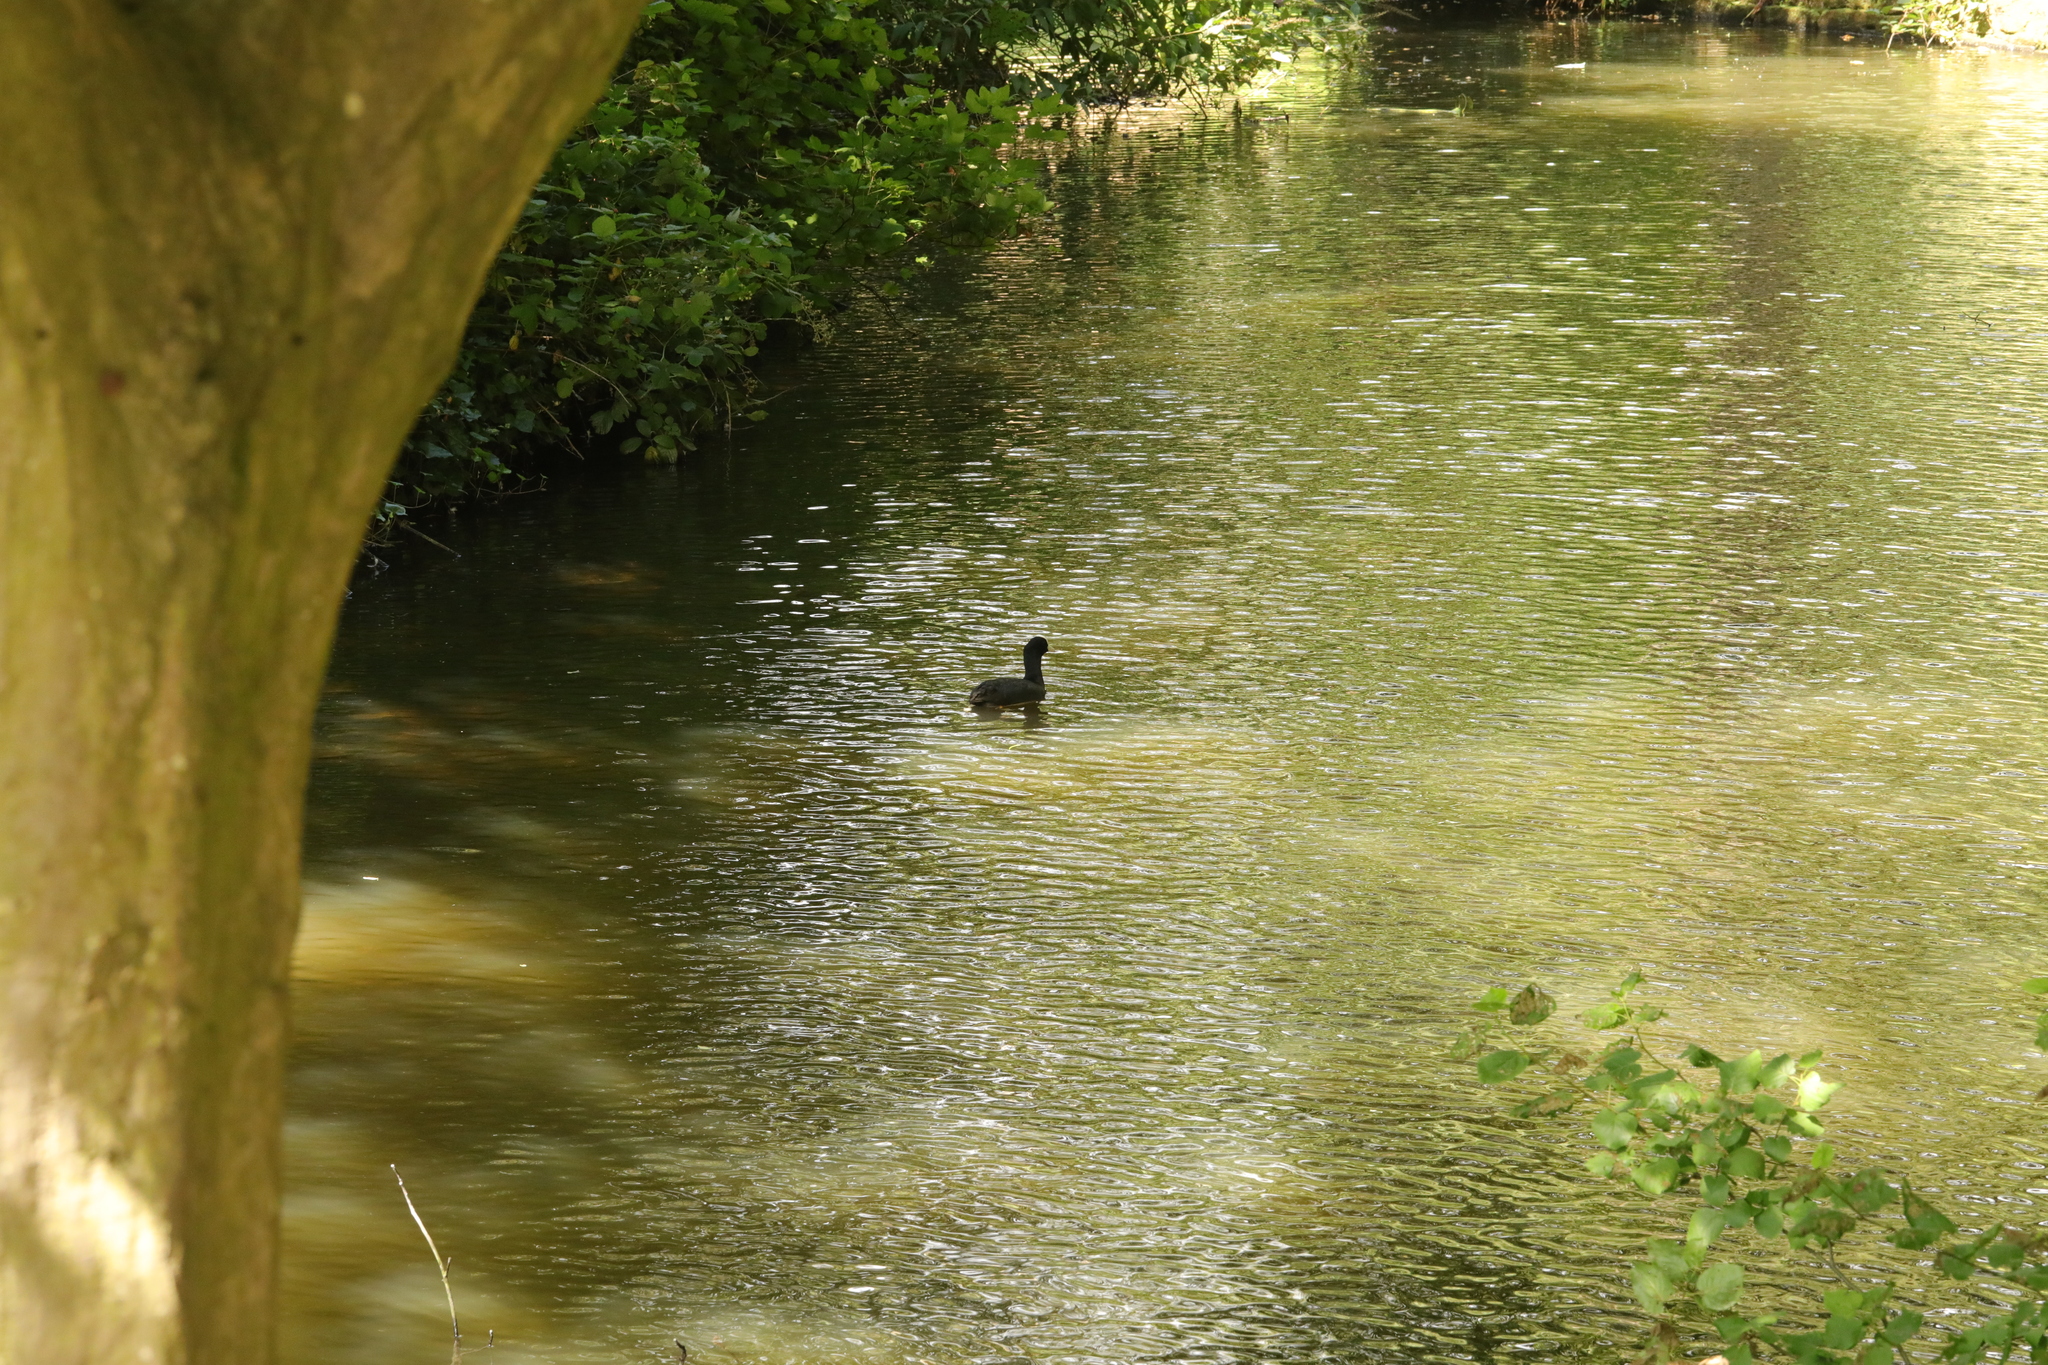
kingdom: Animalia
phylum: Chordata
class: Aves
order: Gruiformes
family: Rallidae
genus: Fulica
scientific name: Fulica atra
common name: Eurasian coot
